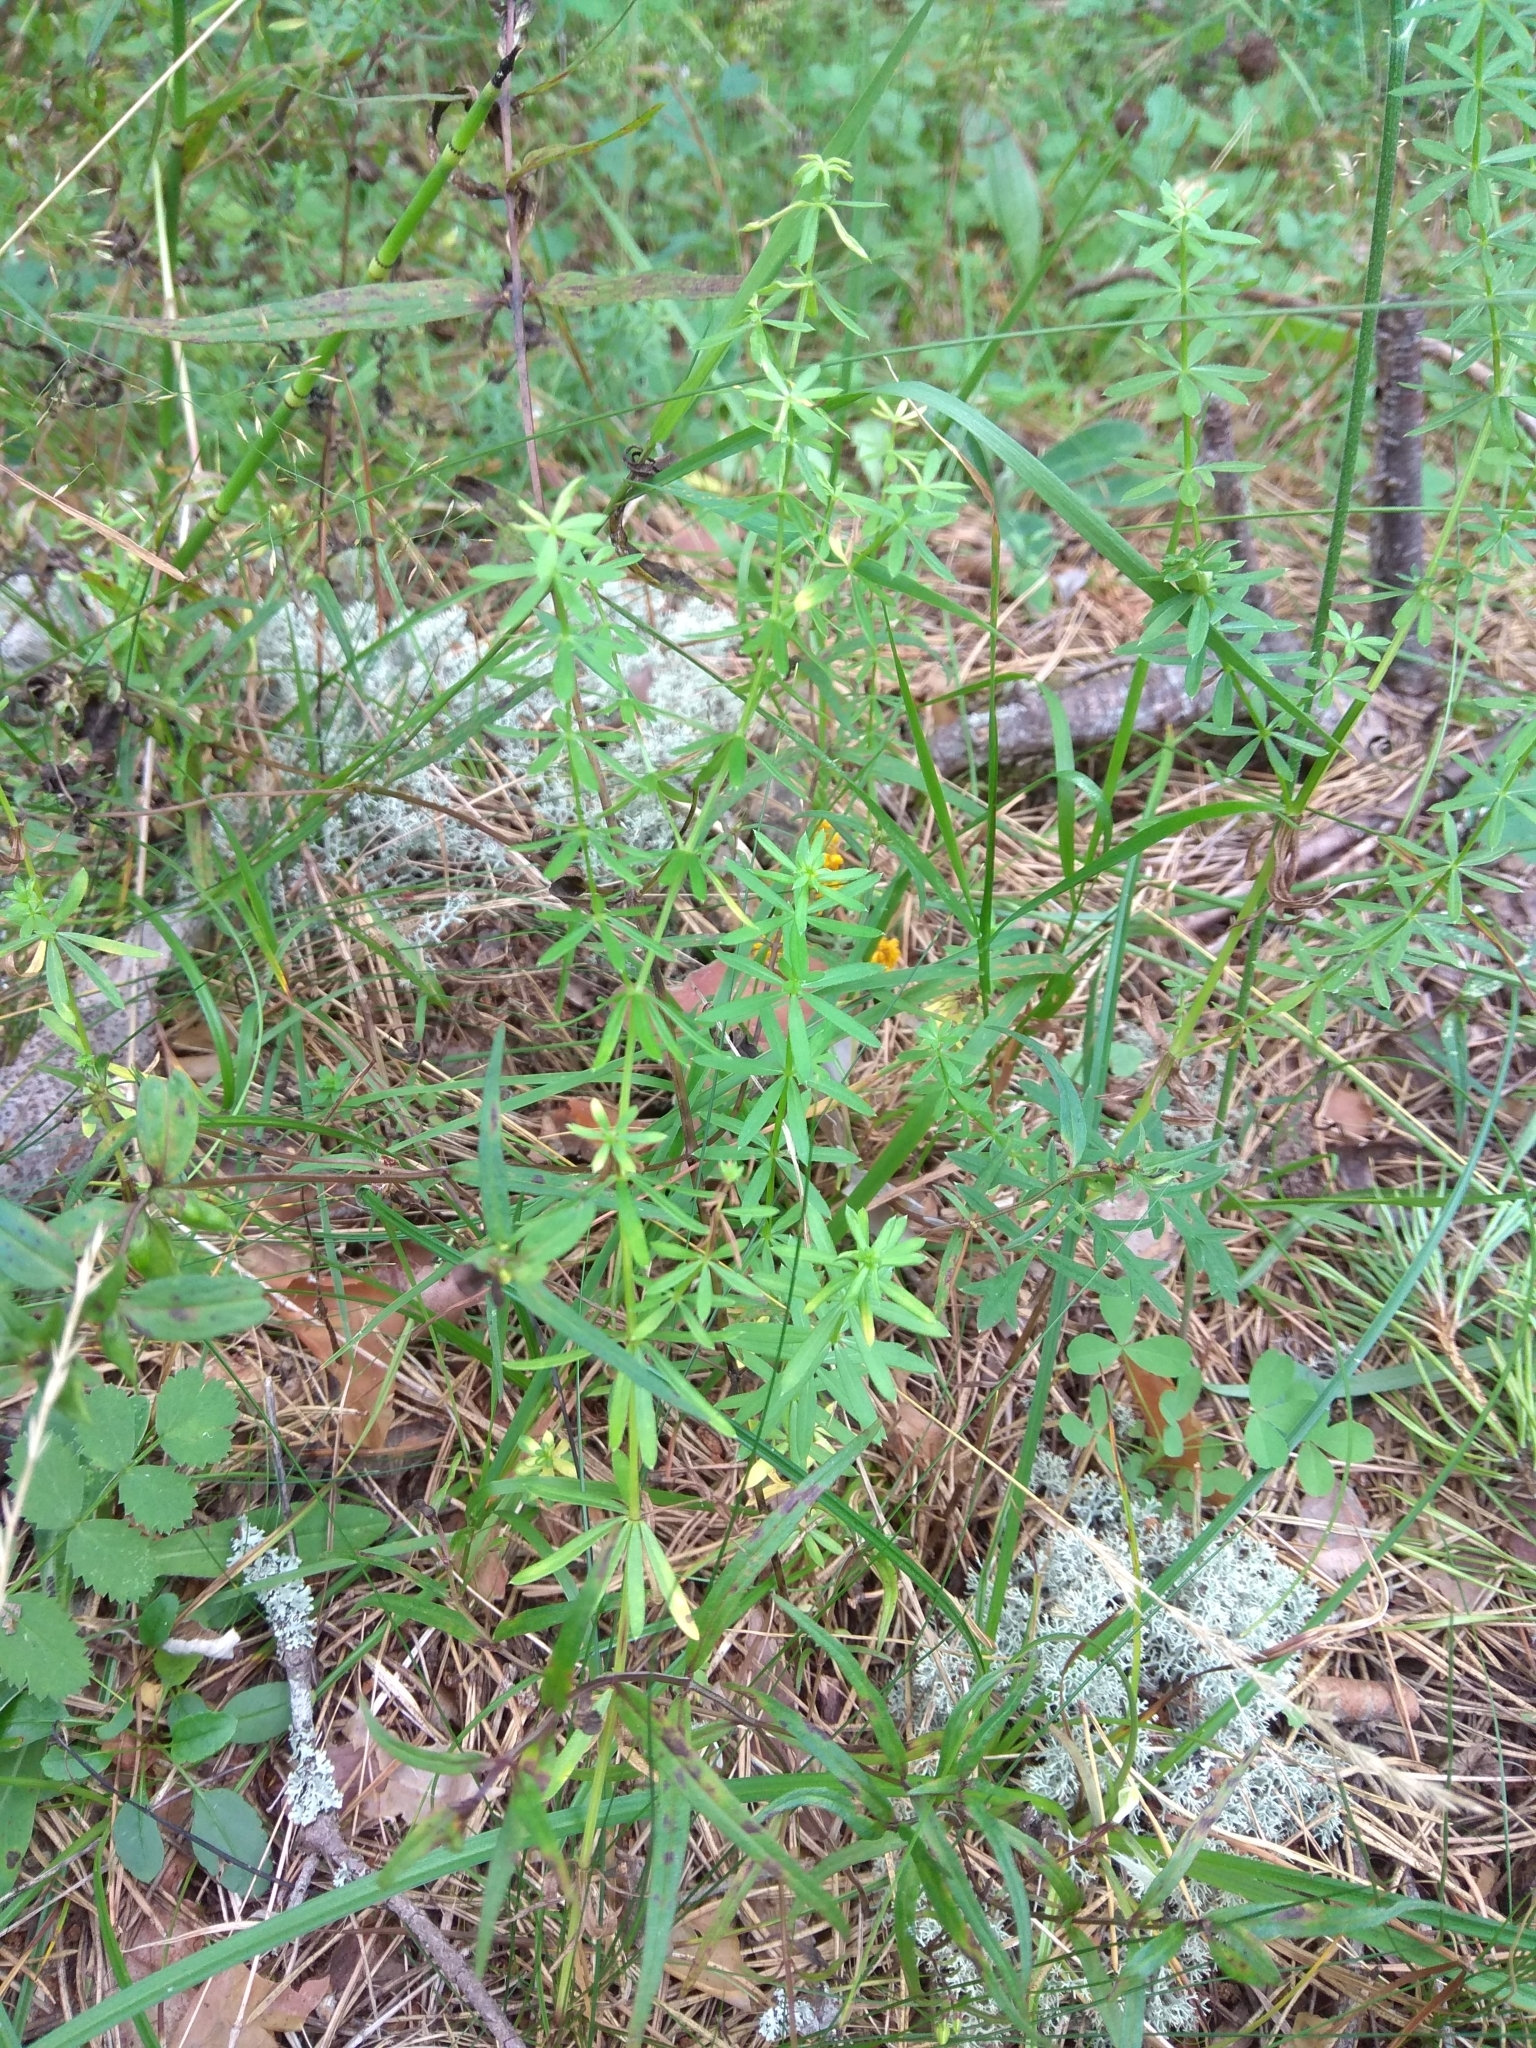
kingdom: Plantae
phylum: Tracheophyta
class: Magnoliopsida
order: Gentianales
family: Rubiaceae
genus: Galium
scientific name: Galium mollugo
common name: Hedge bedstraw
